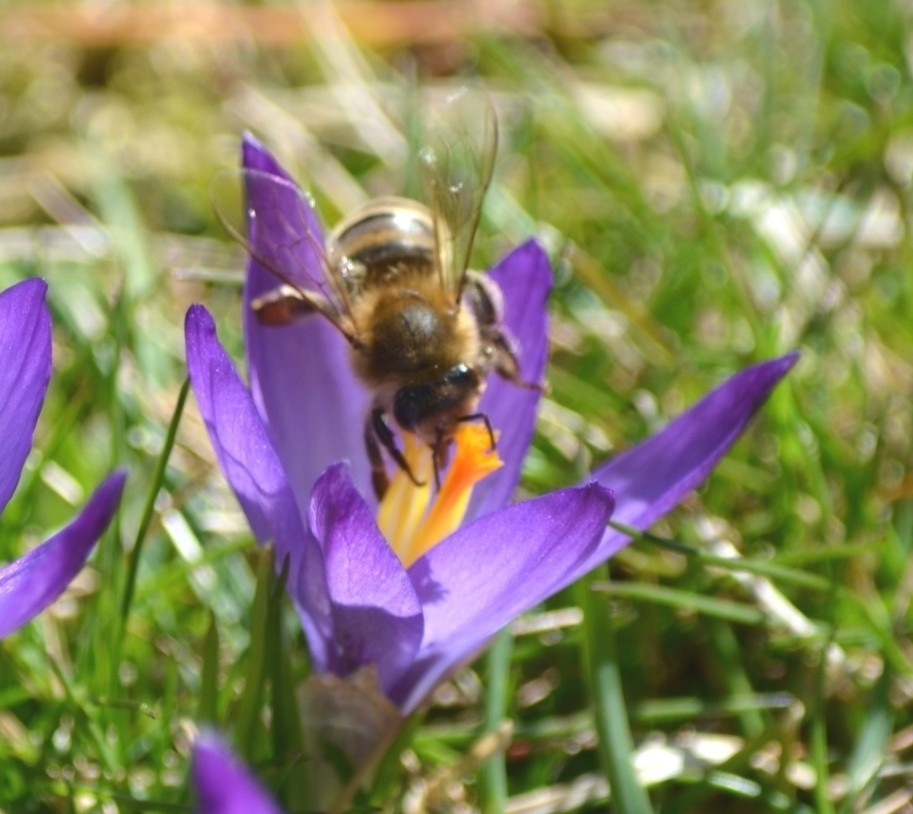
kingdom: Animalia
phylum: Arthropoda
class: Insecta
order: Hymenoptera
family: Apidae
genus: Apis
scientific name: Apis mellifera
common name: Honey bee
